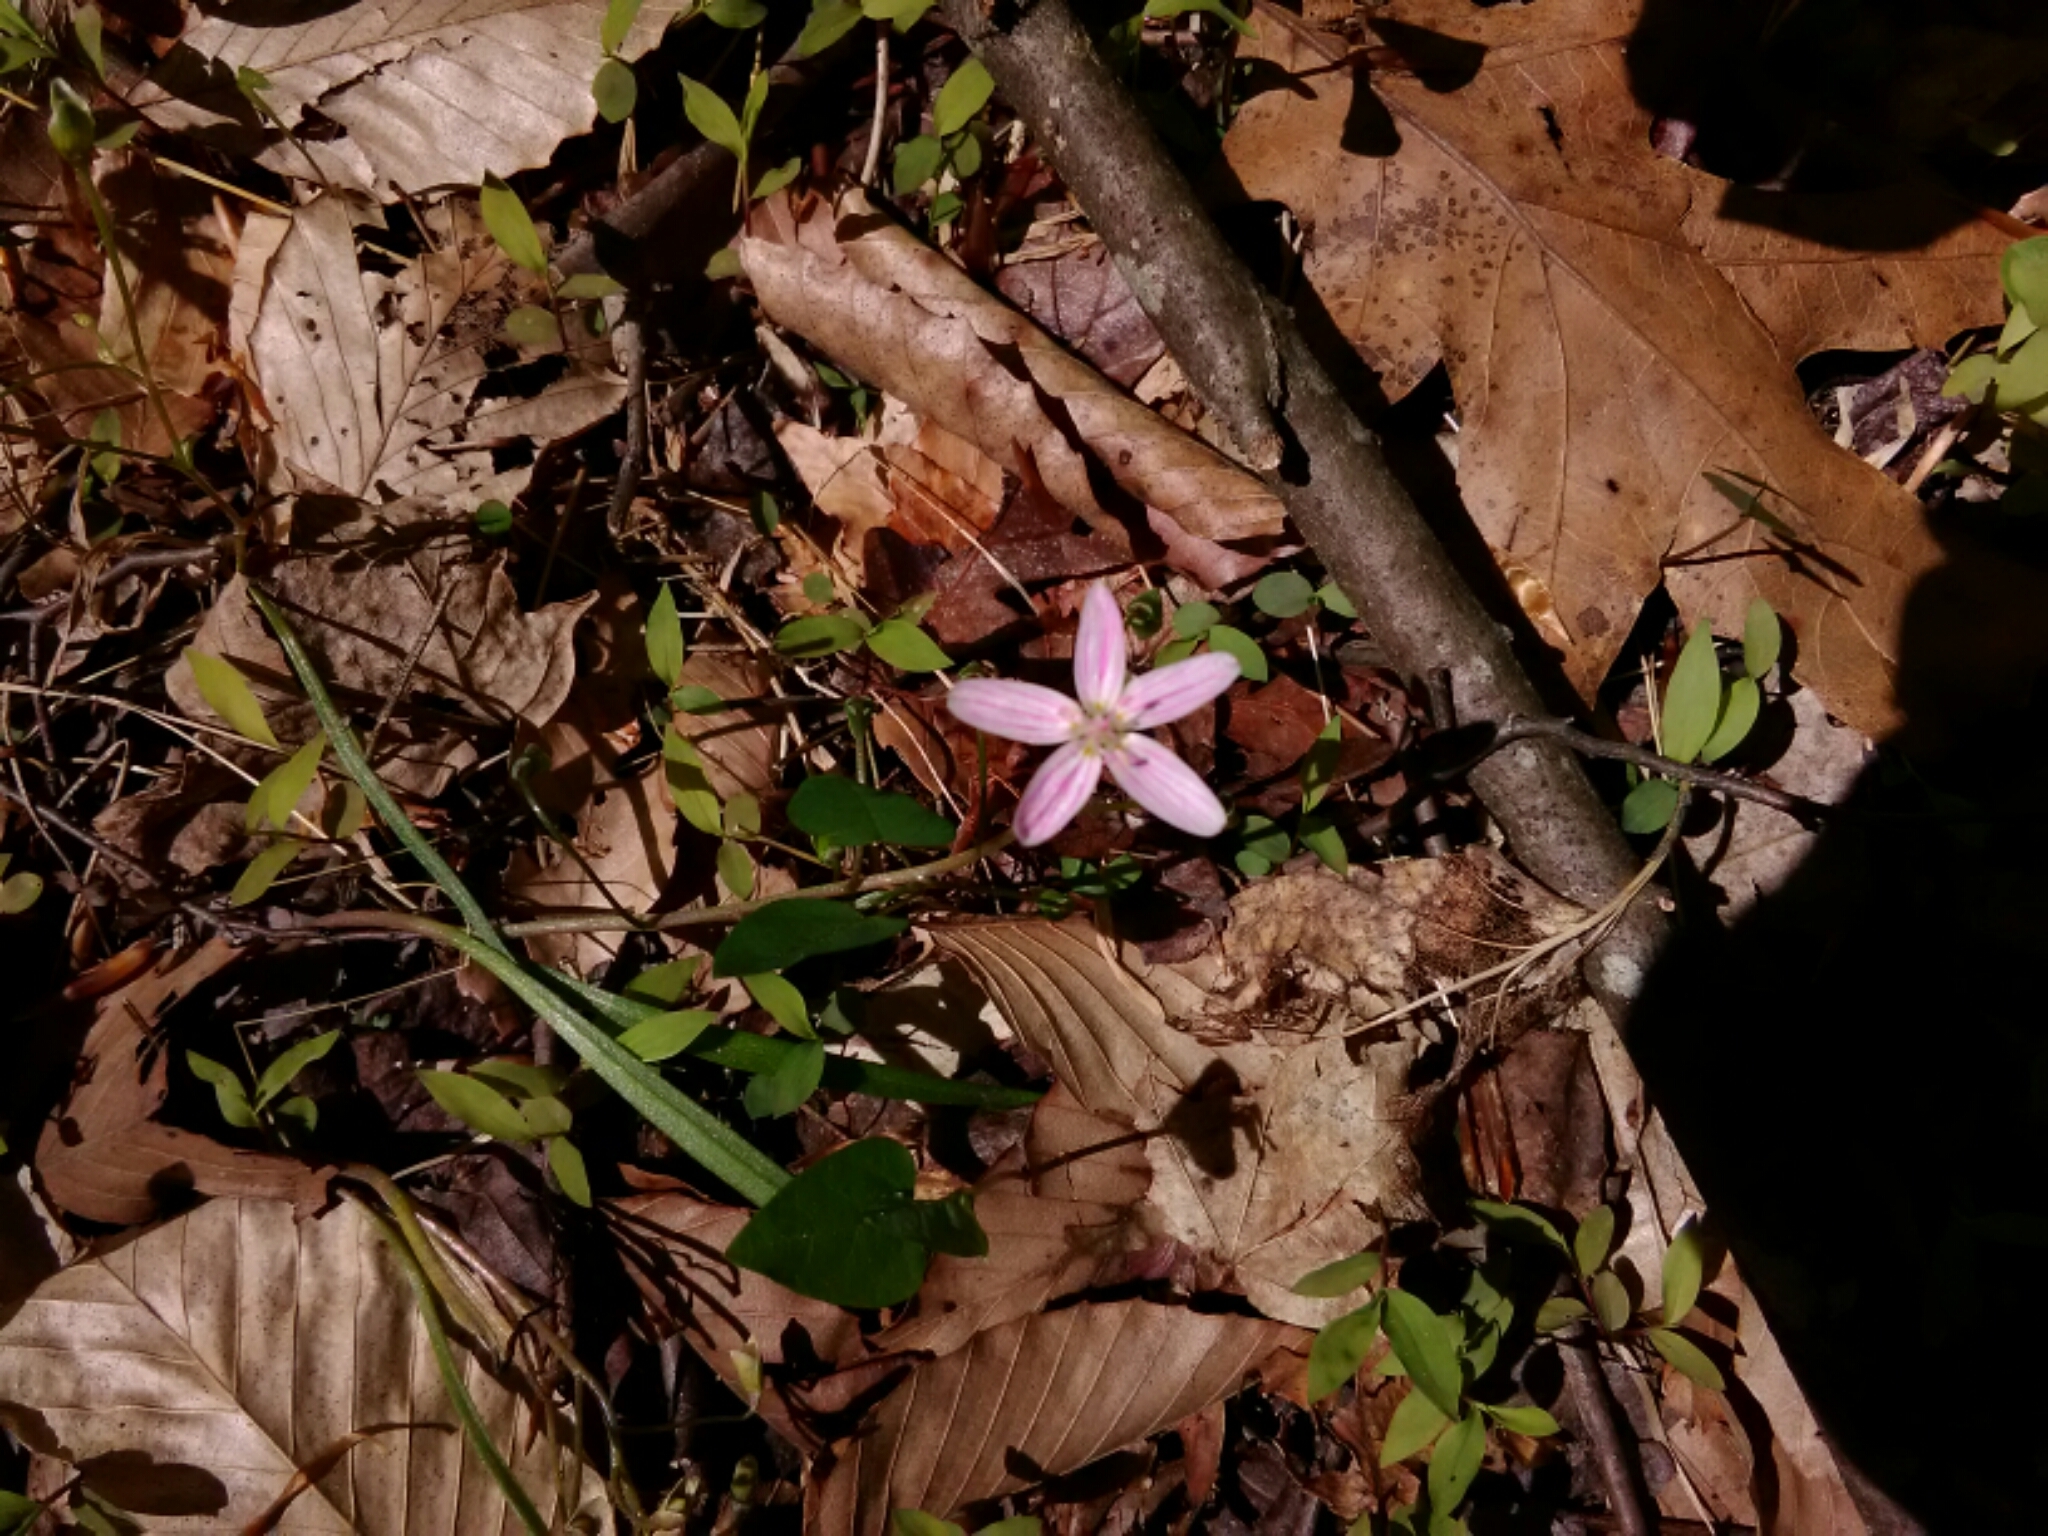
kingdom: Plantae
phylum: Tracheophyta
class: Magnoliopsida
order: Caryophyllales
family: Montiaceae
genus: Claytonia
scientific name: Claytonia virginica
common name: Virginia springbeauty
